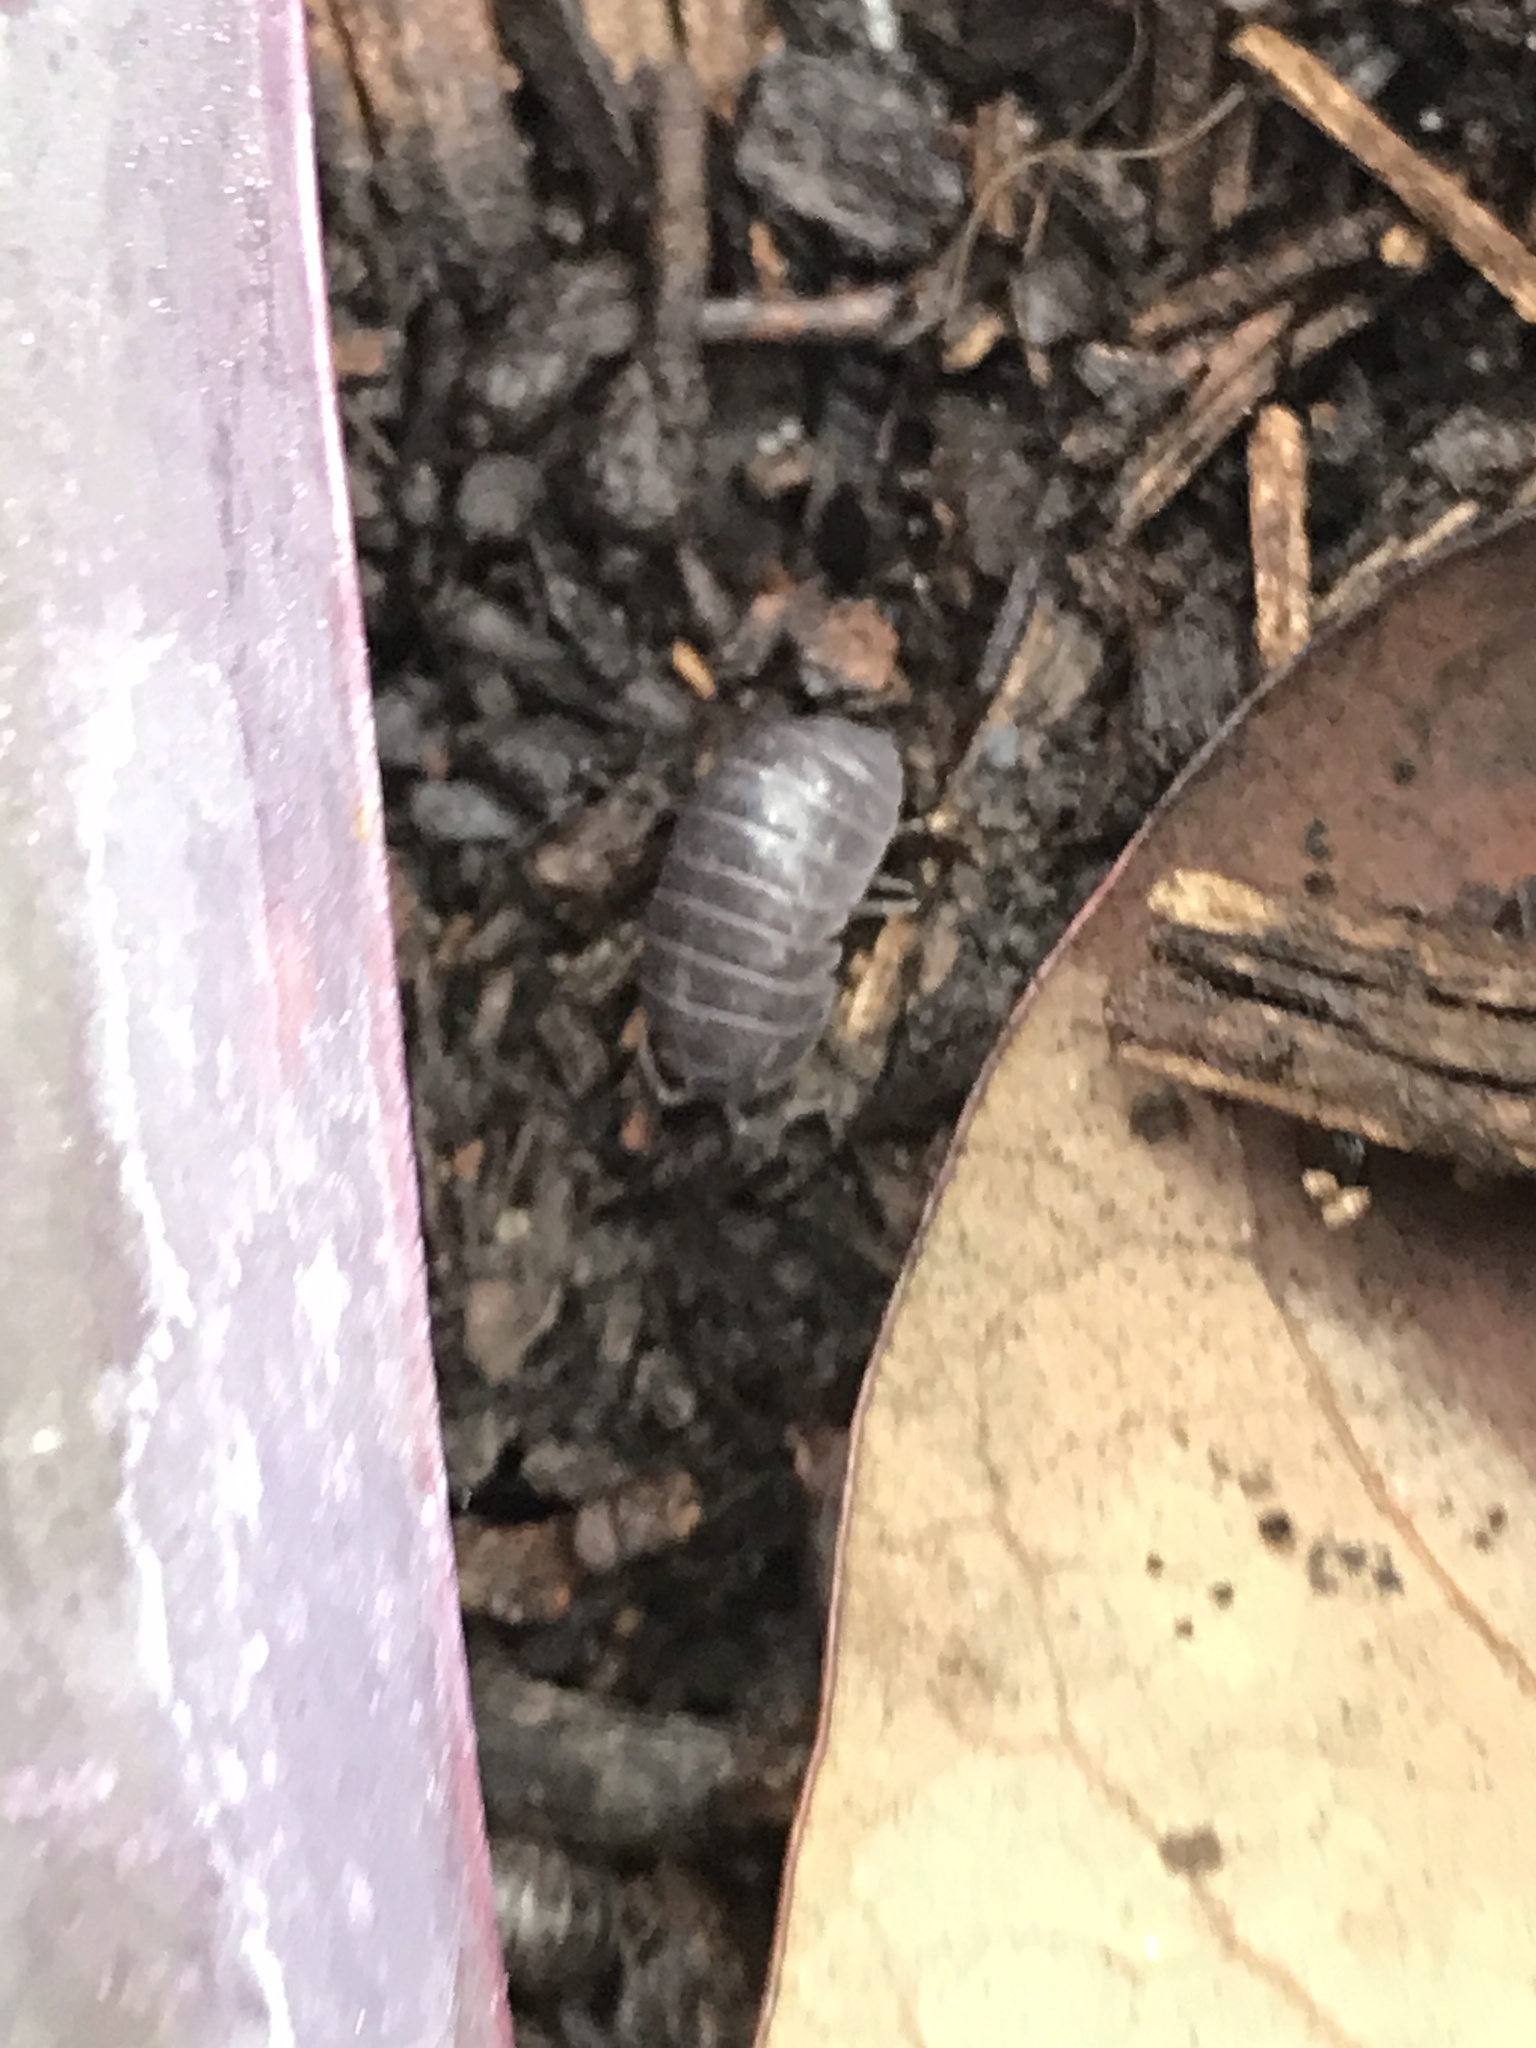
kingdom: Animalia
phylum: Arthropoda
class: Malacostraca
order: Isopoda
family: Armadillidiidae
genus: Armadillidium
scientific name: Armadillidium vulgare
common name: Common pill woodlouse
